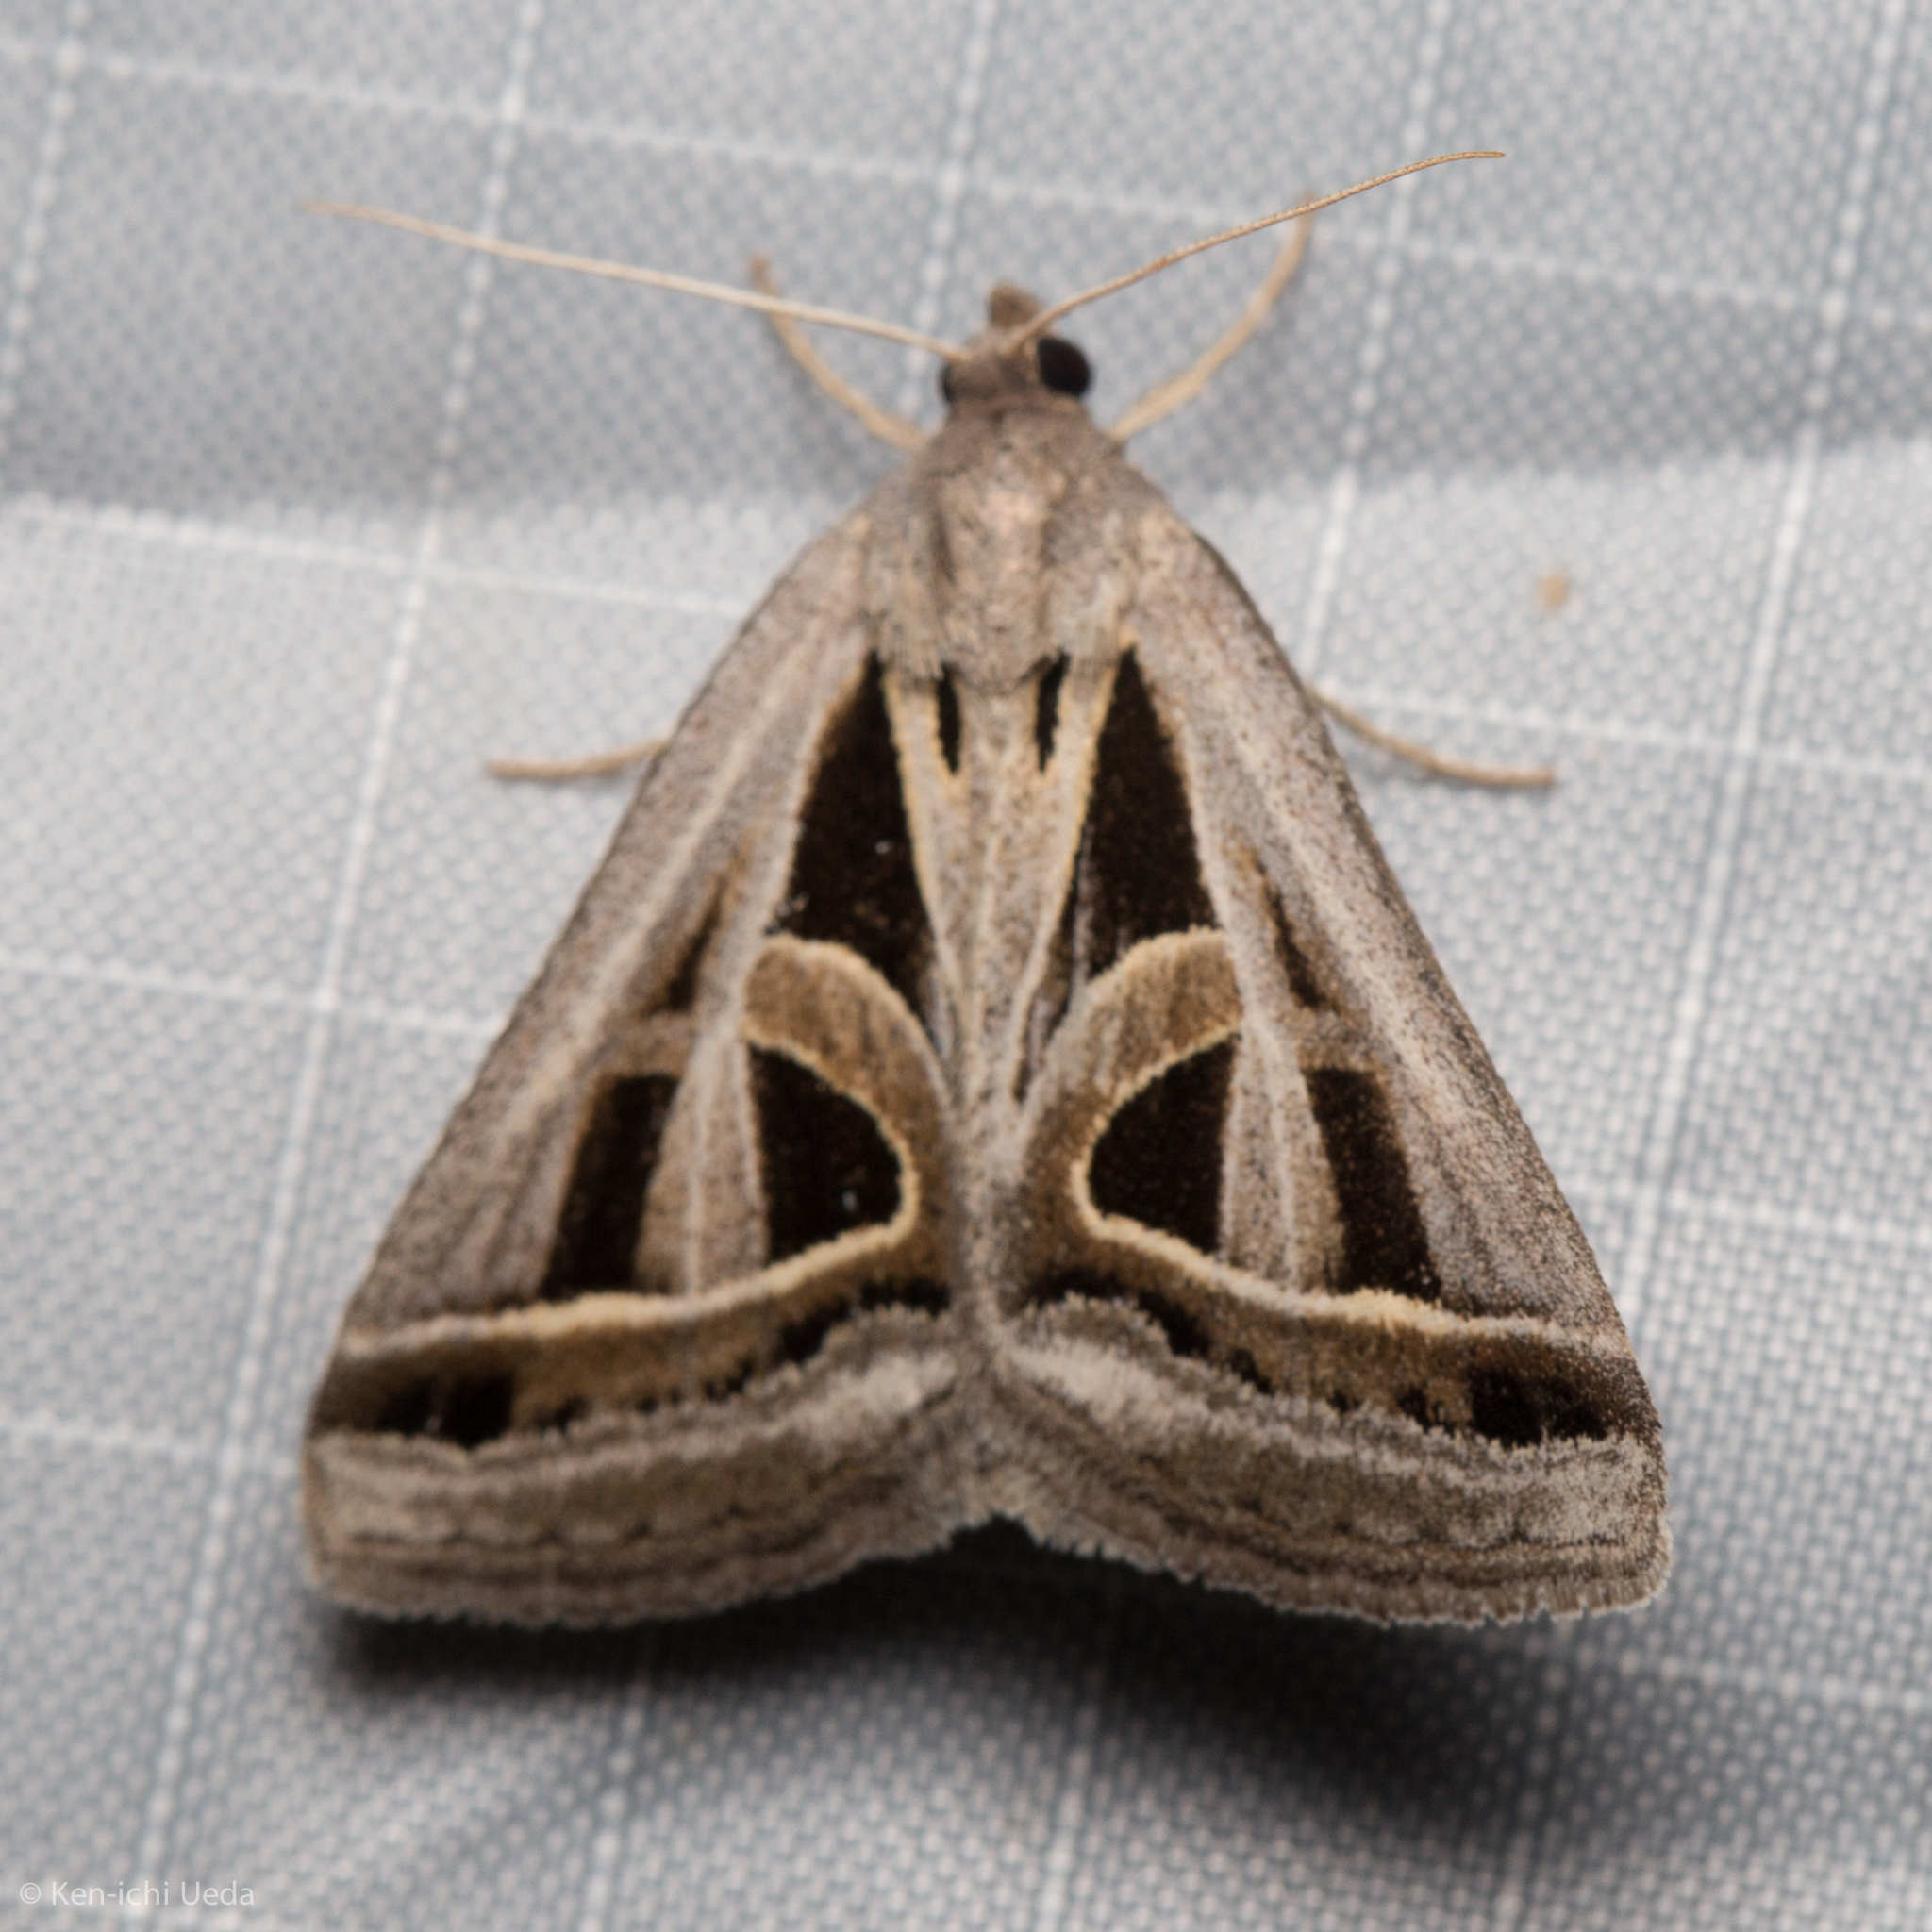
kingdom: Animalia
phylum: Arthropoda
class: Insecta
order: Lepidoptera
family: Erebidae
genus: Callistege
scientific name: Callistege diagonalis
